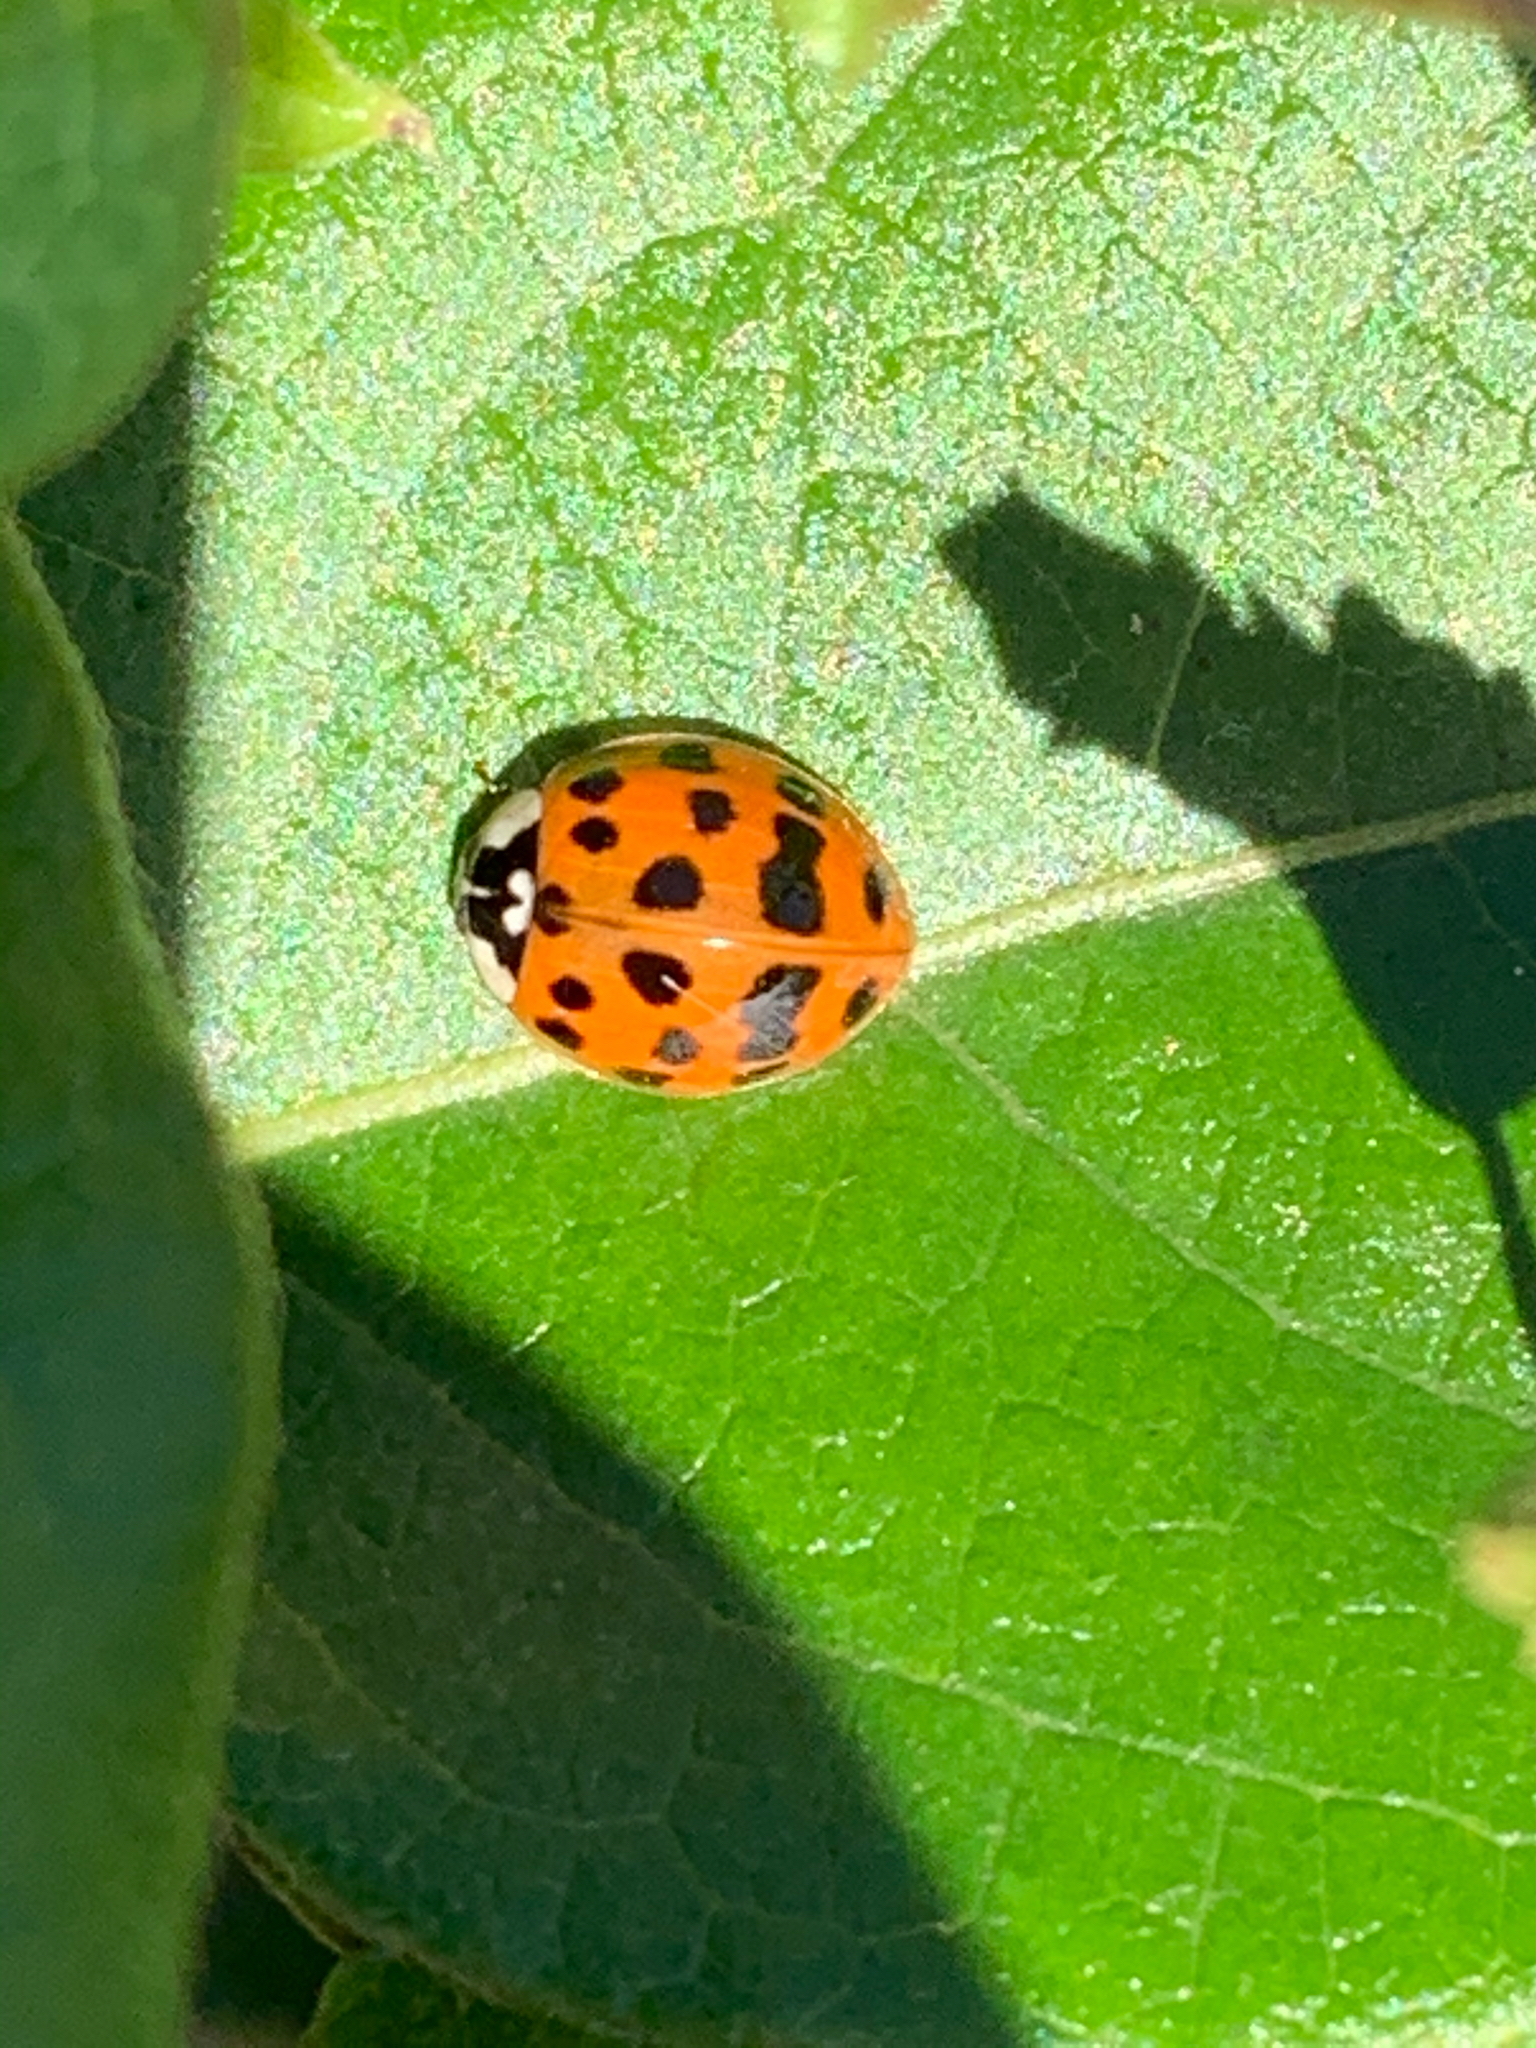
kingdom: Animalia
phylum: Arthropoda
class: Insecta
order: Coleoptera
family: Coccinellidae
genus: Harmonia
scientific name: Harmonia axyridis
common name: Harlequin ladybird
